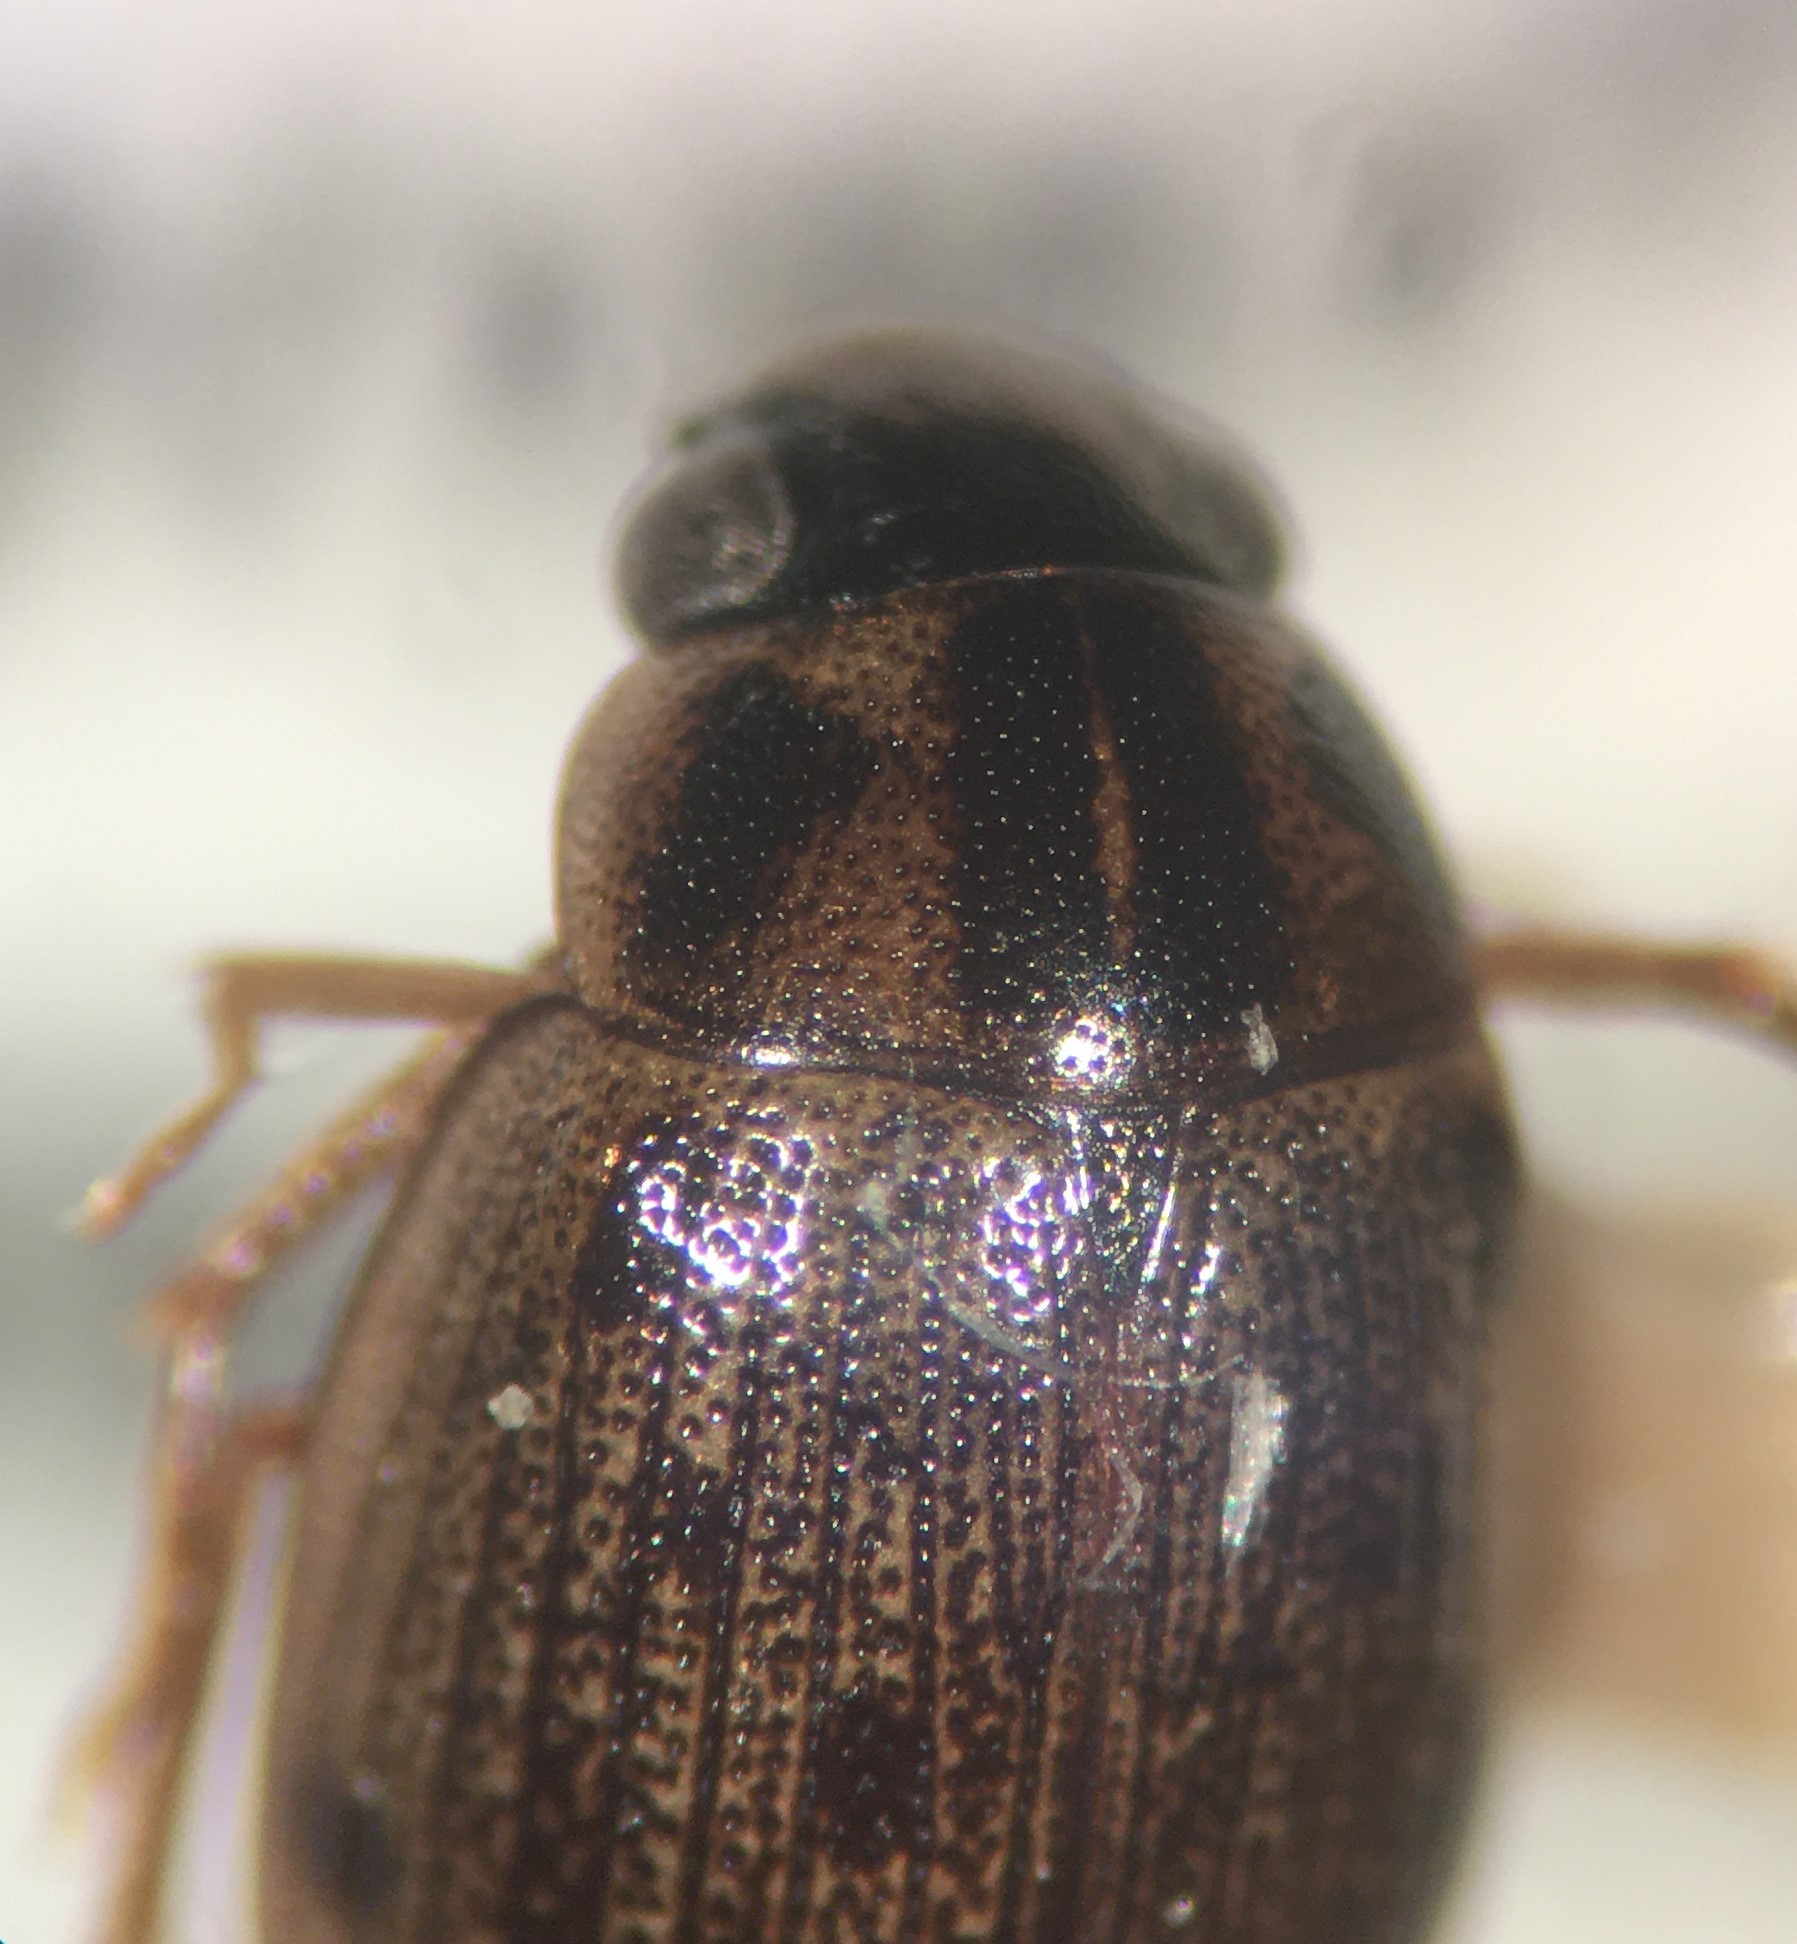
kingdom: Animalia
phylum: Arthropoda
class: Insecta
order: Coleoptera
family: Hydrophilidae
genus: Berosus
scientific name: Berosus youngi
